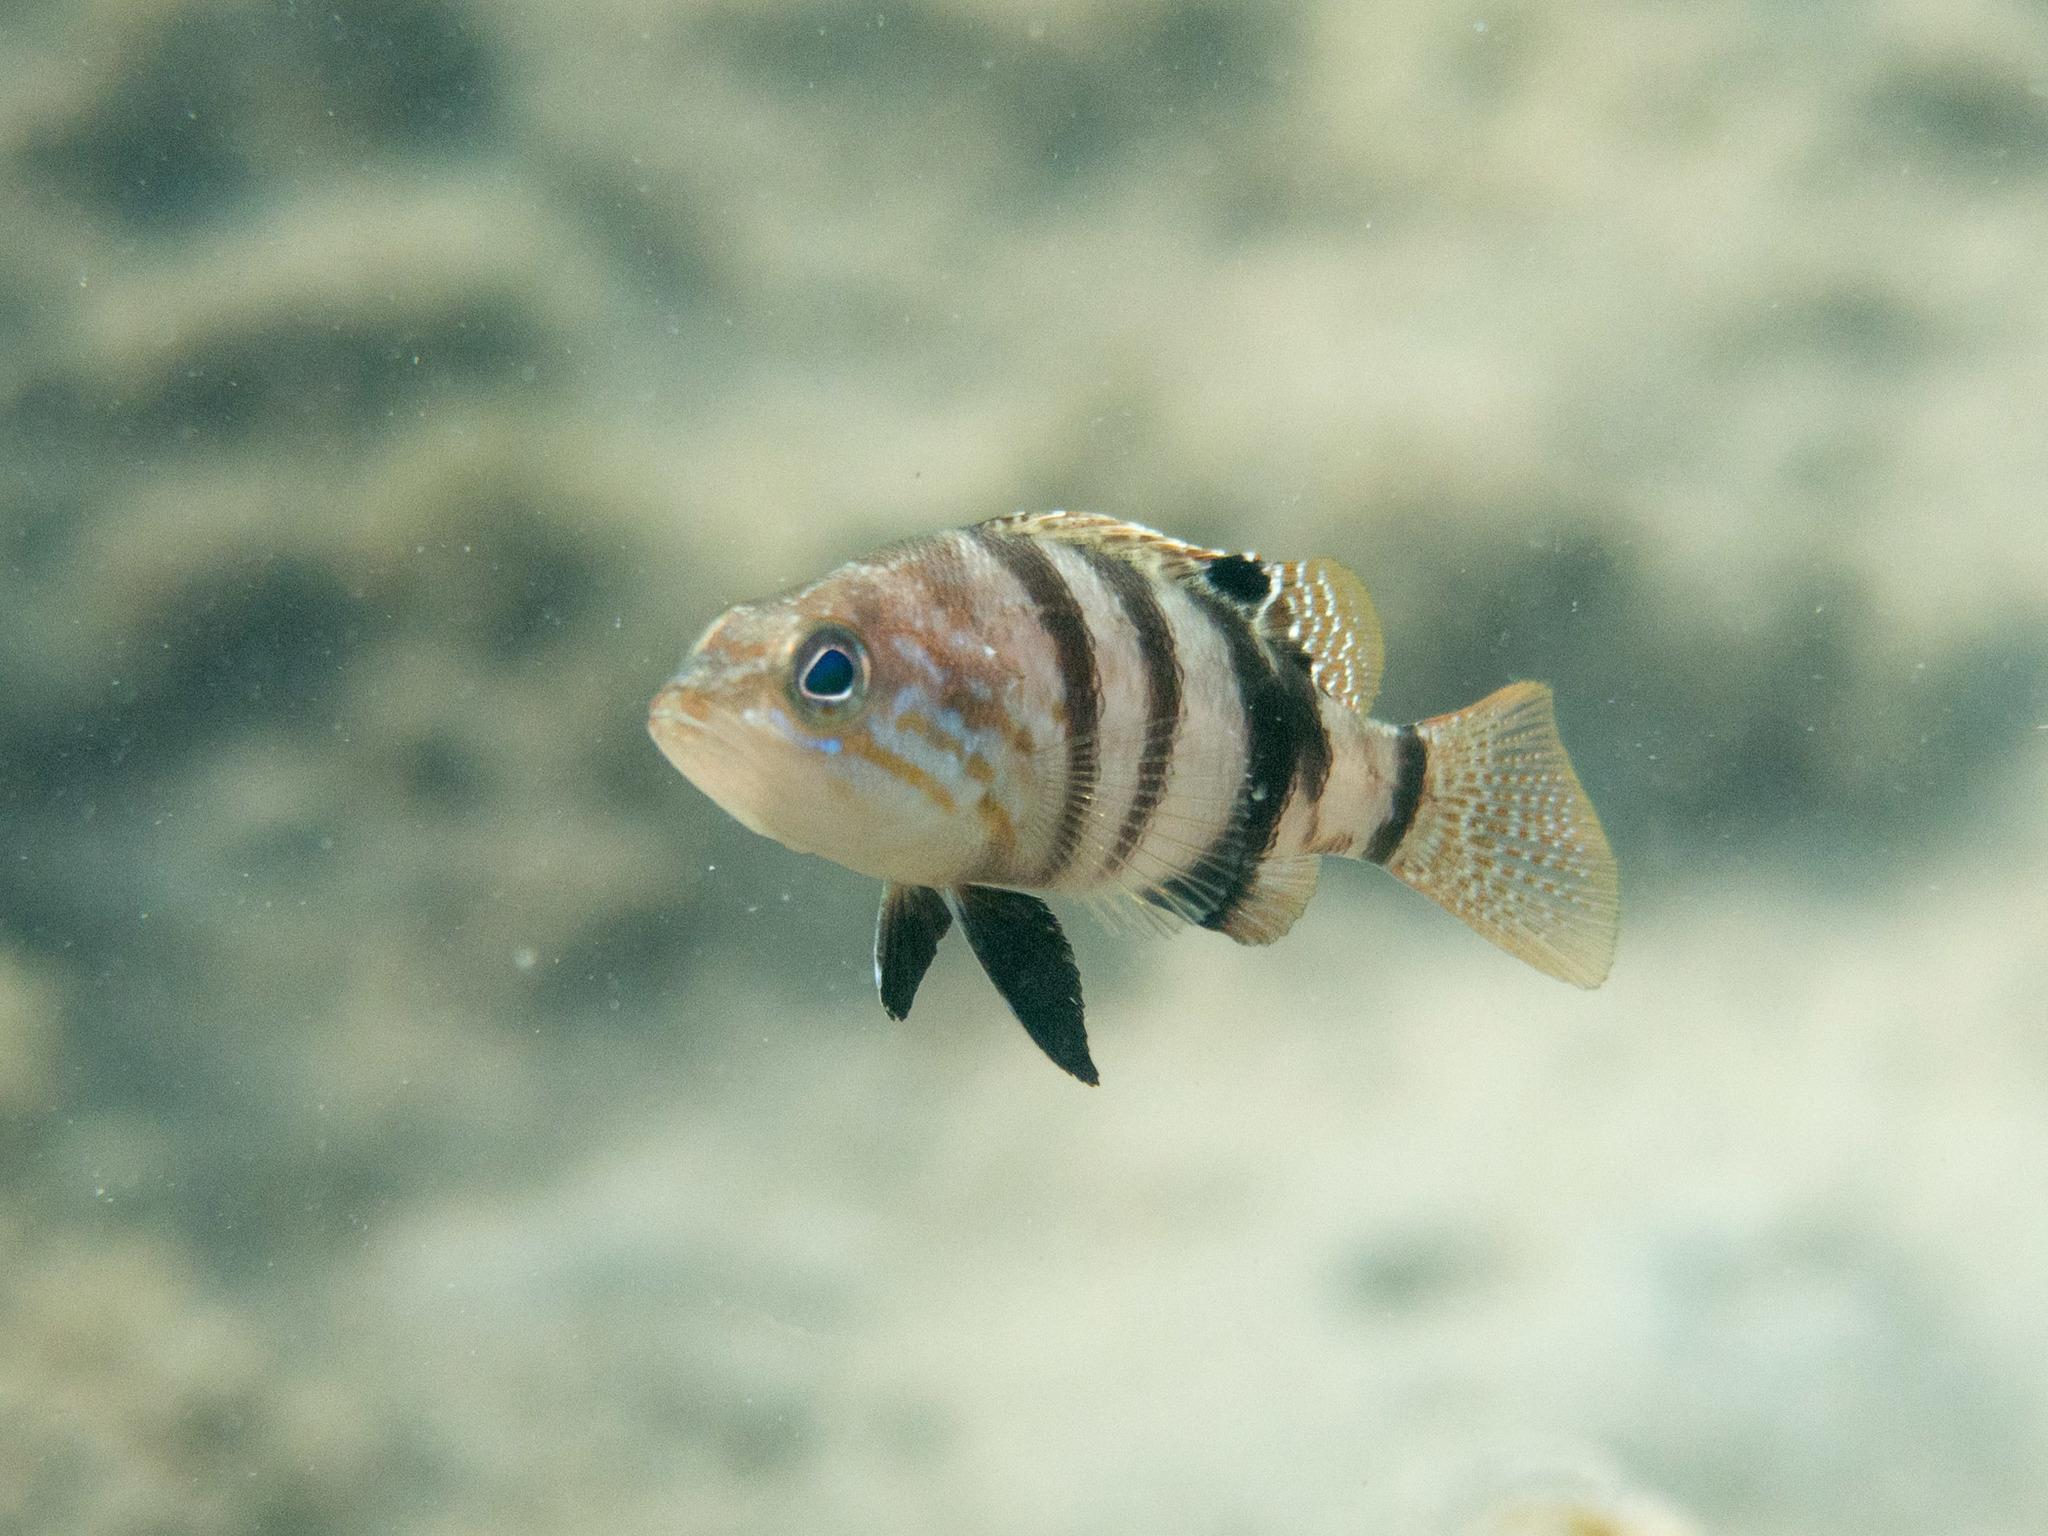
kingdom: Animalia
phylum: Chordata
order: Perciformes
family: Serranidae
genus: Serranus
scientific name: Serranus hepatus
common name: Brown comber
